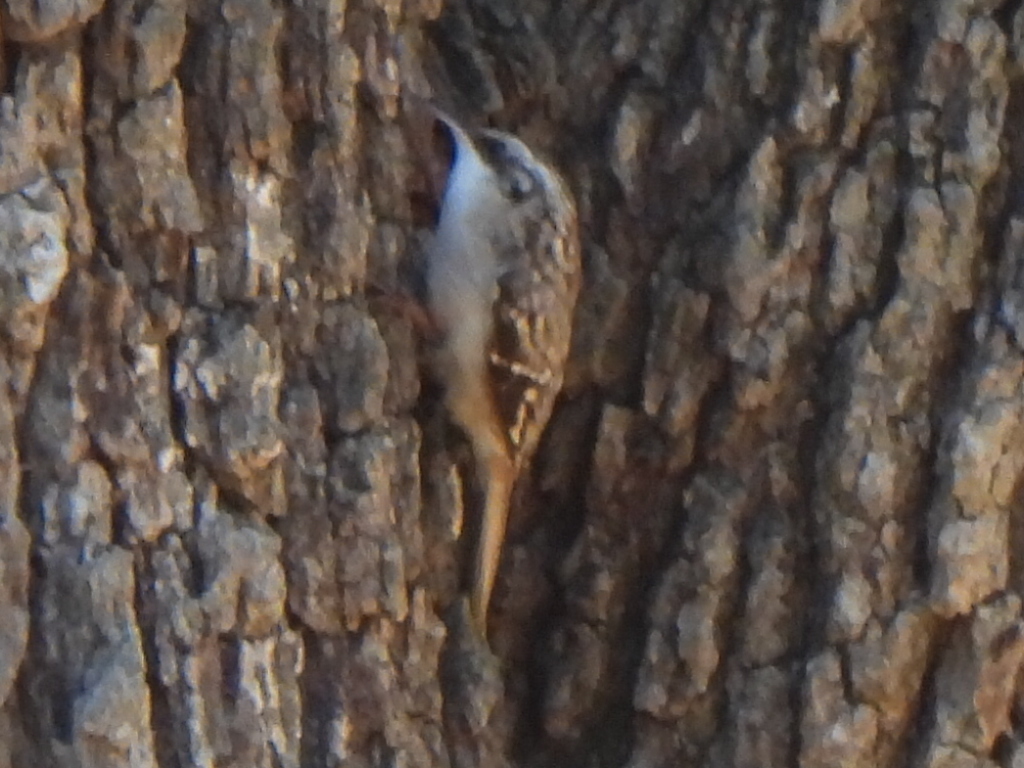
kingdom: Animalia
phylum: Chordata
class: Aves
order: Passeriformes
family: Certhiidae
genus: Certhia
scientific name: Certhia americana
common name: Brown creeper
